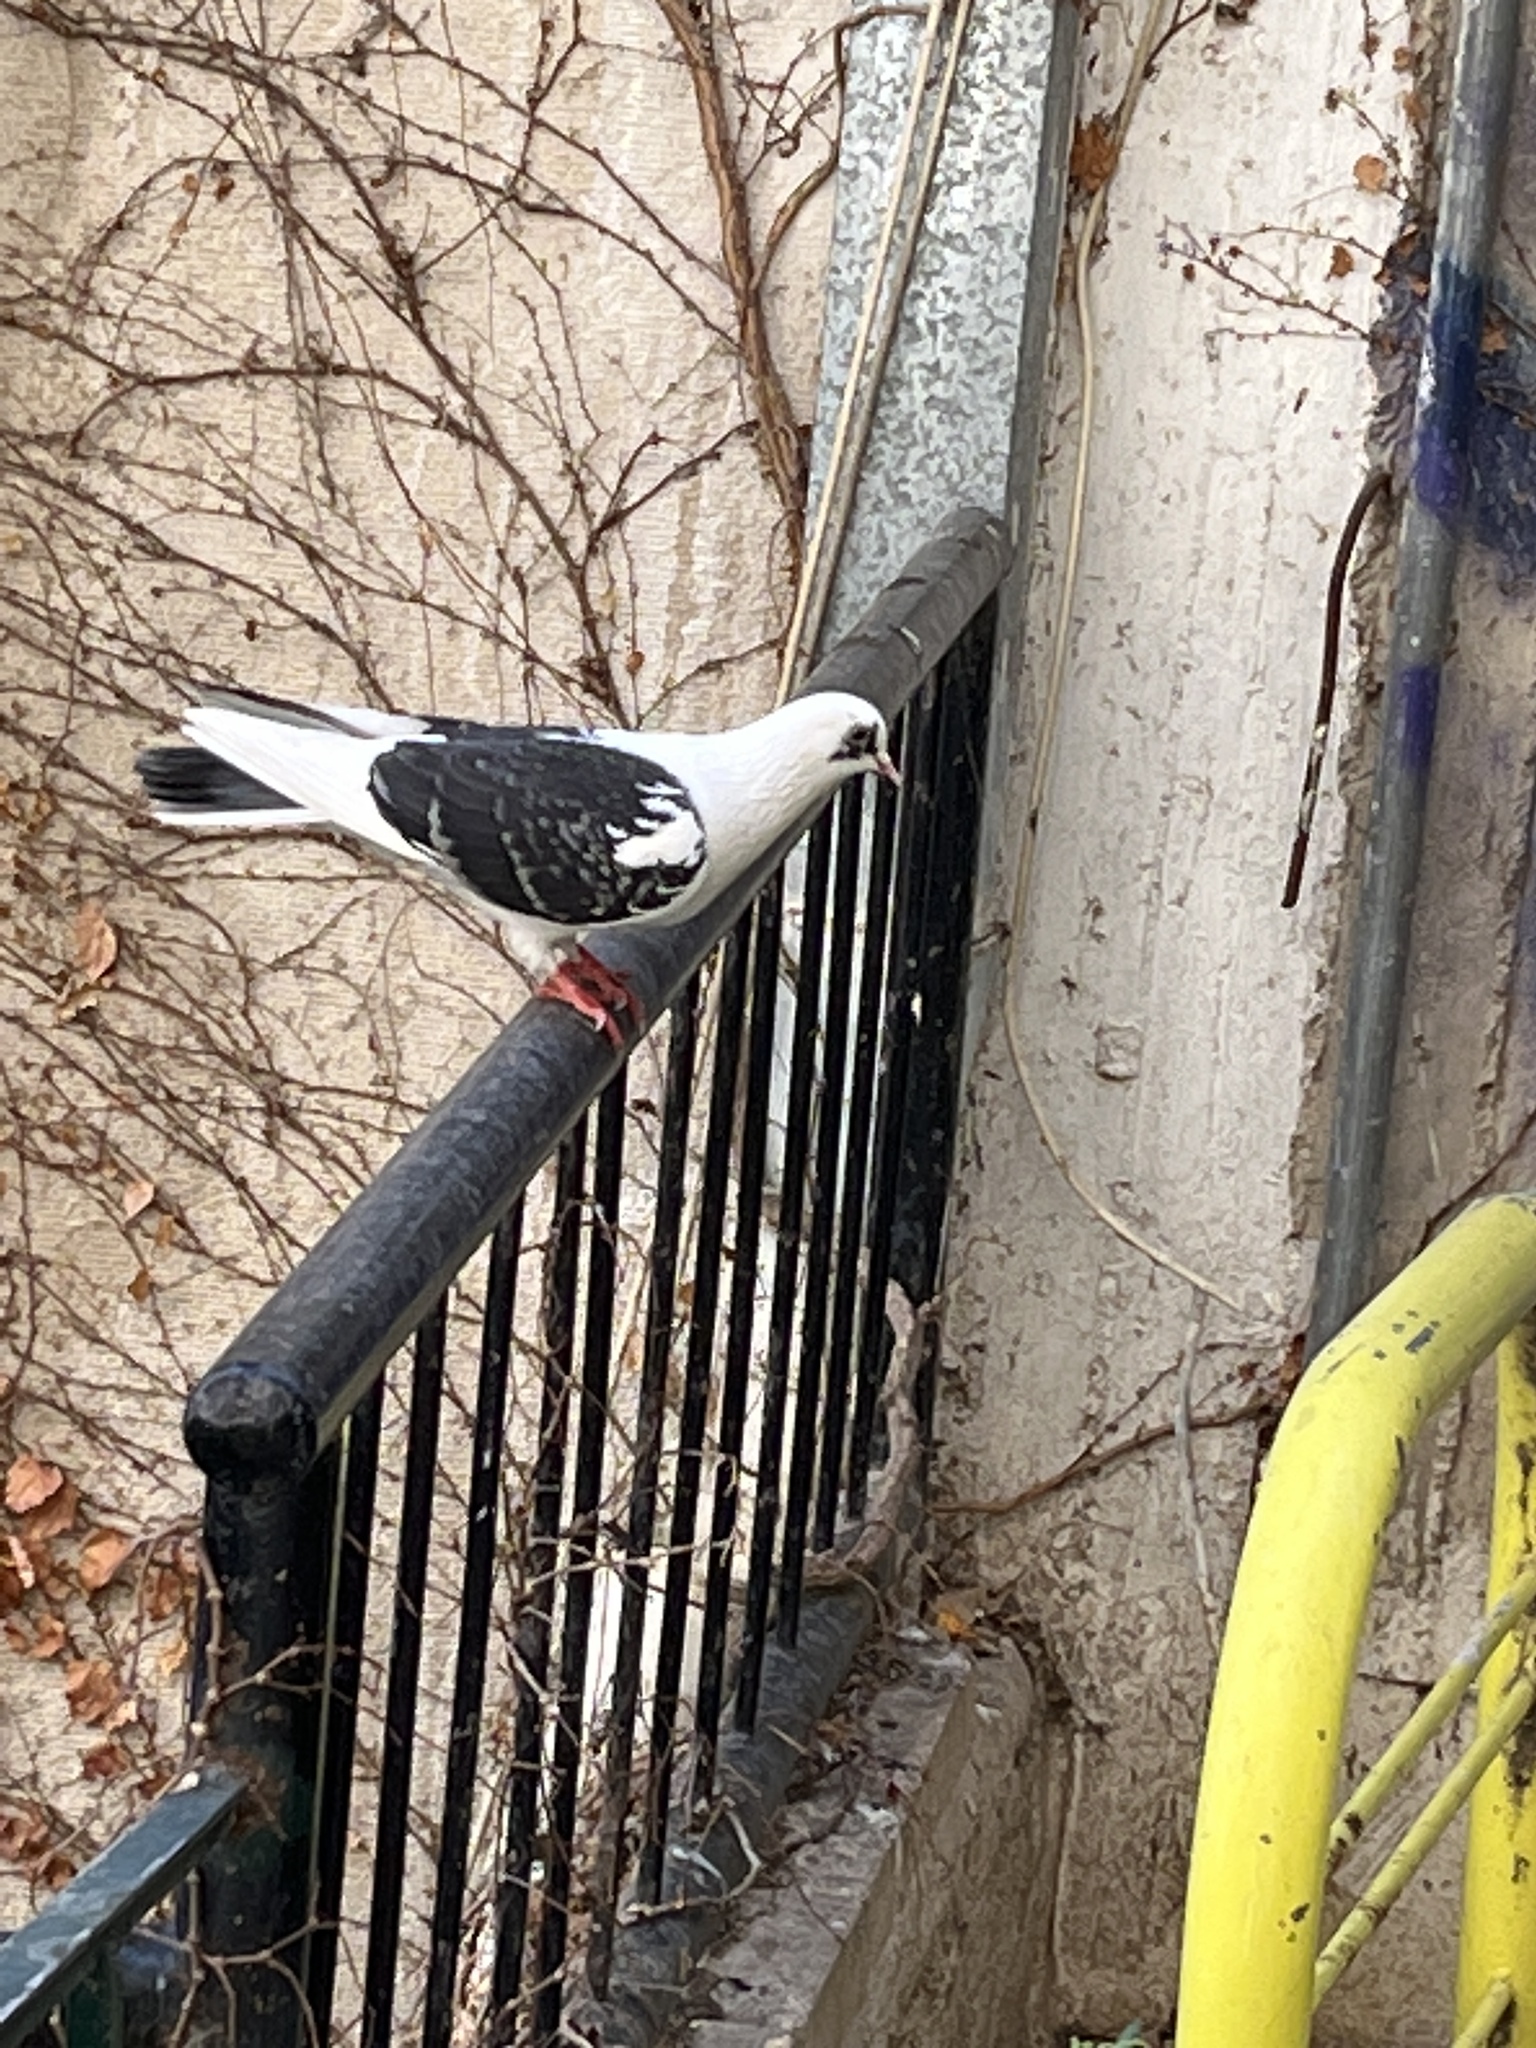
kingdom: Animalia
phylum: Chordata
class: Aves
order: Columbiformes
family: Columbidae
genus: Columba
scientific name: Columba livia
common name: Rock pigeon
